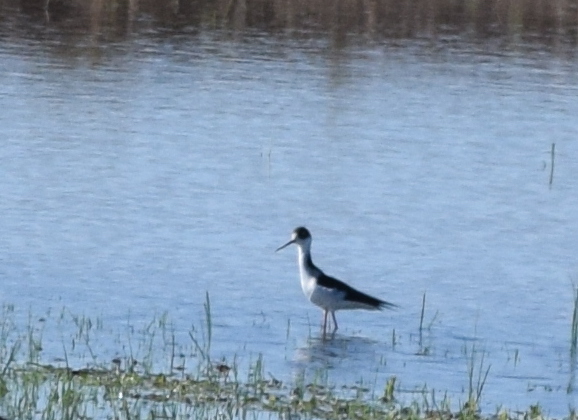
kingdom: Animalia
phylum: Chordata
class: Aves
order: Charadriiformes
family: Recurvirostridae
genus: Himantopus
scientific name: Himantopus mexicanus
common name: Black-necked stilt
